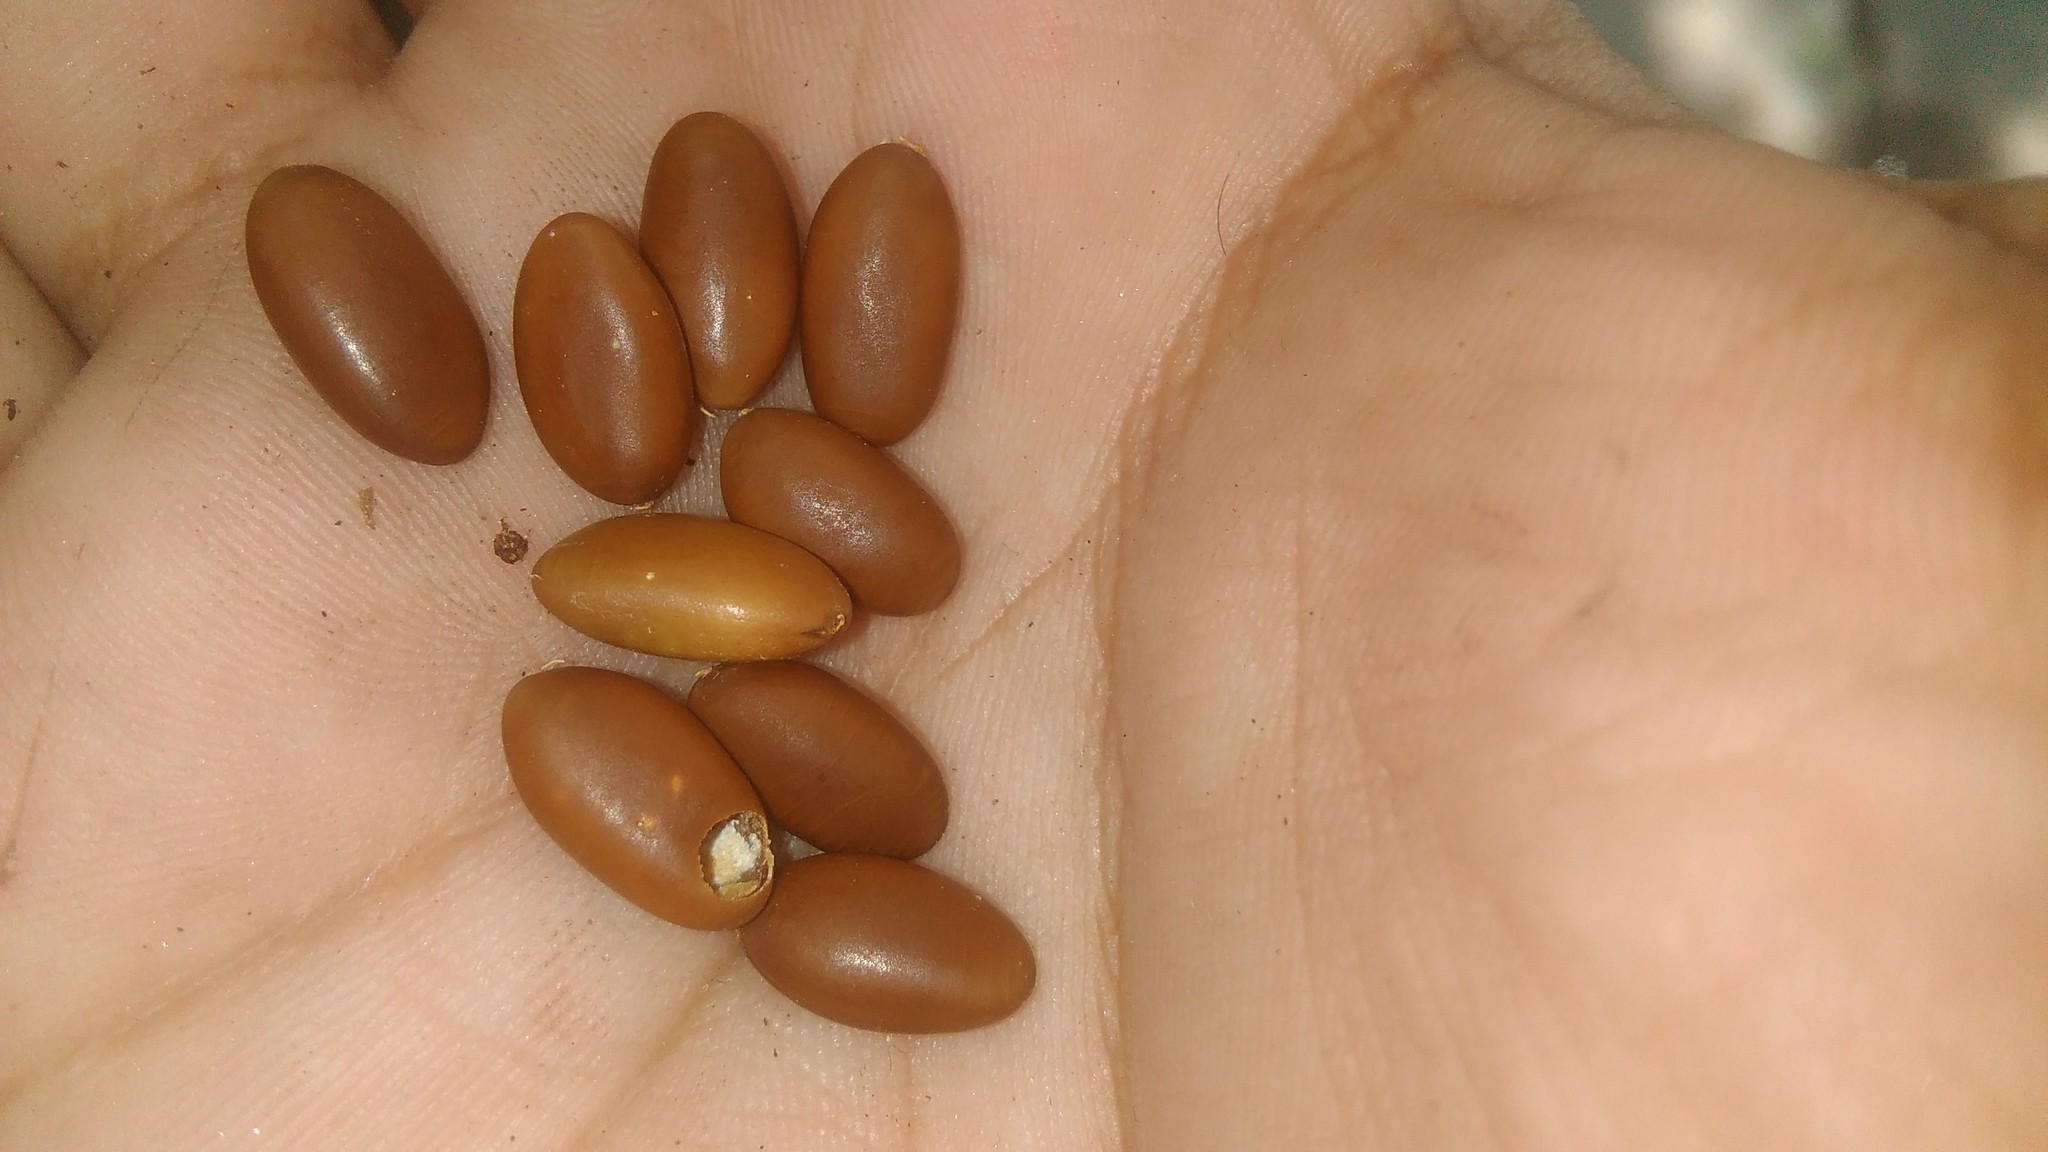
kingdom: Plantae
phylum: Tracheophyta
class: Magnoliopsida
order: Fabales
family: Fabaceae
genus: Gleditsia
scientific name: Gleditsia triacanthos
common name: Common honeylocust
